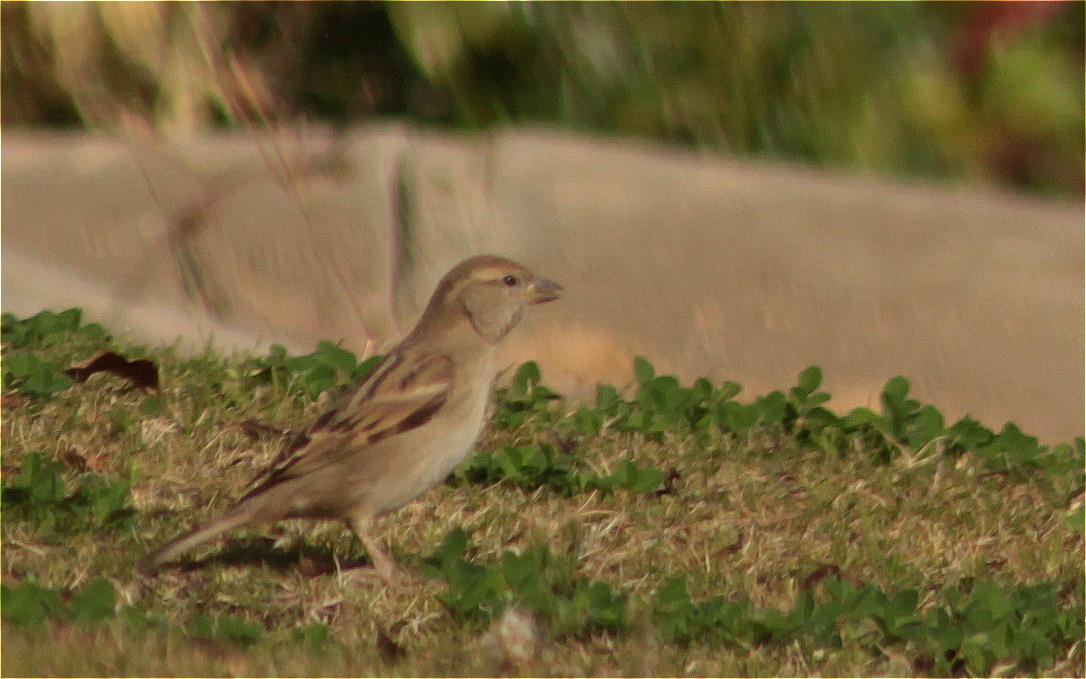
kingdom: Animalia
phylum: Chordata
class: Aves
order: Passeriformes
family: Passeridae
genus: Passer
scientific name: Passer domesticus
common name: House sparrow
